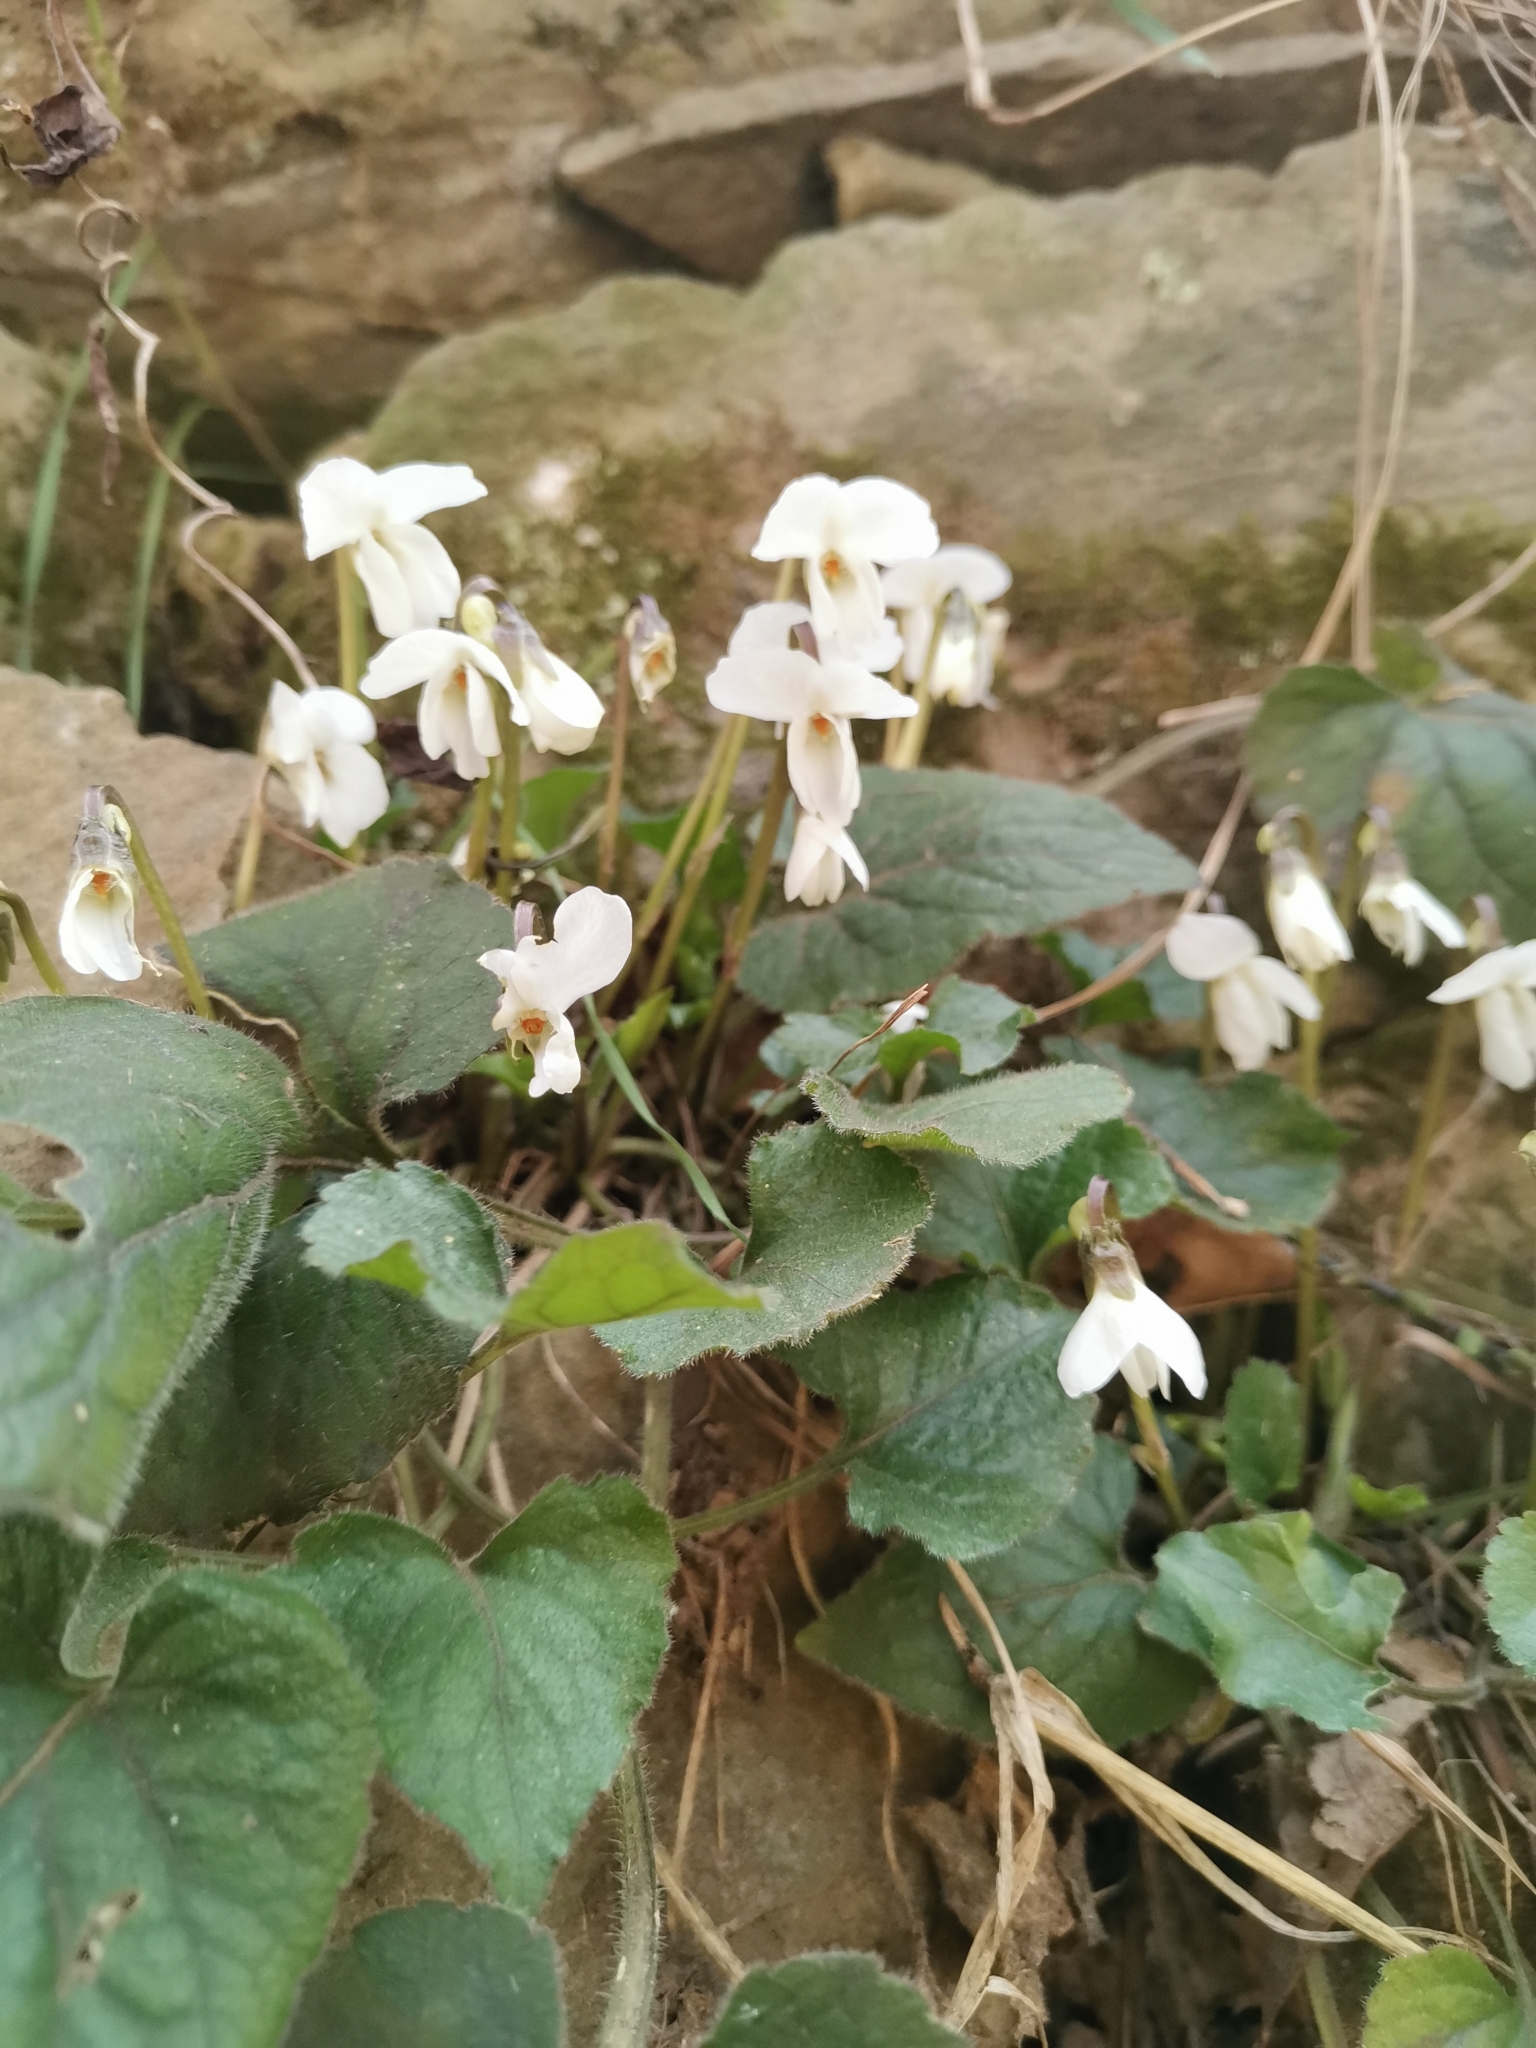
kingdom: Plantae
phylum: Tracheophyta
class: Magnoliopsida
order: Malpighiales
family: Violaceae
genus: Viola
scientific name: Viola alba
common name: White violet
